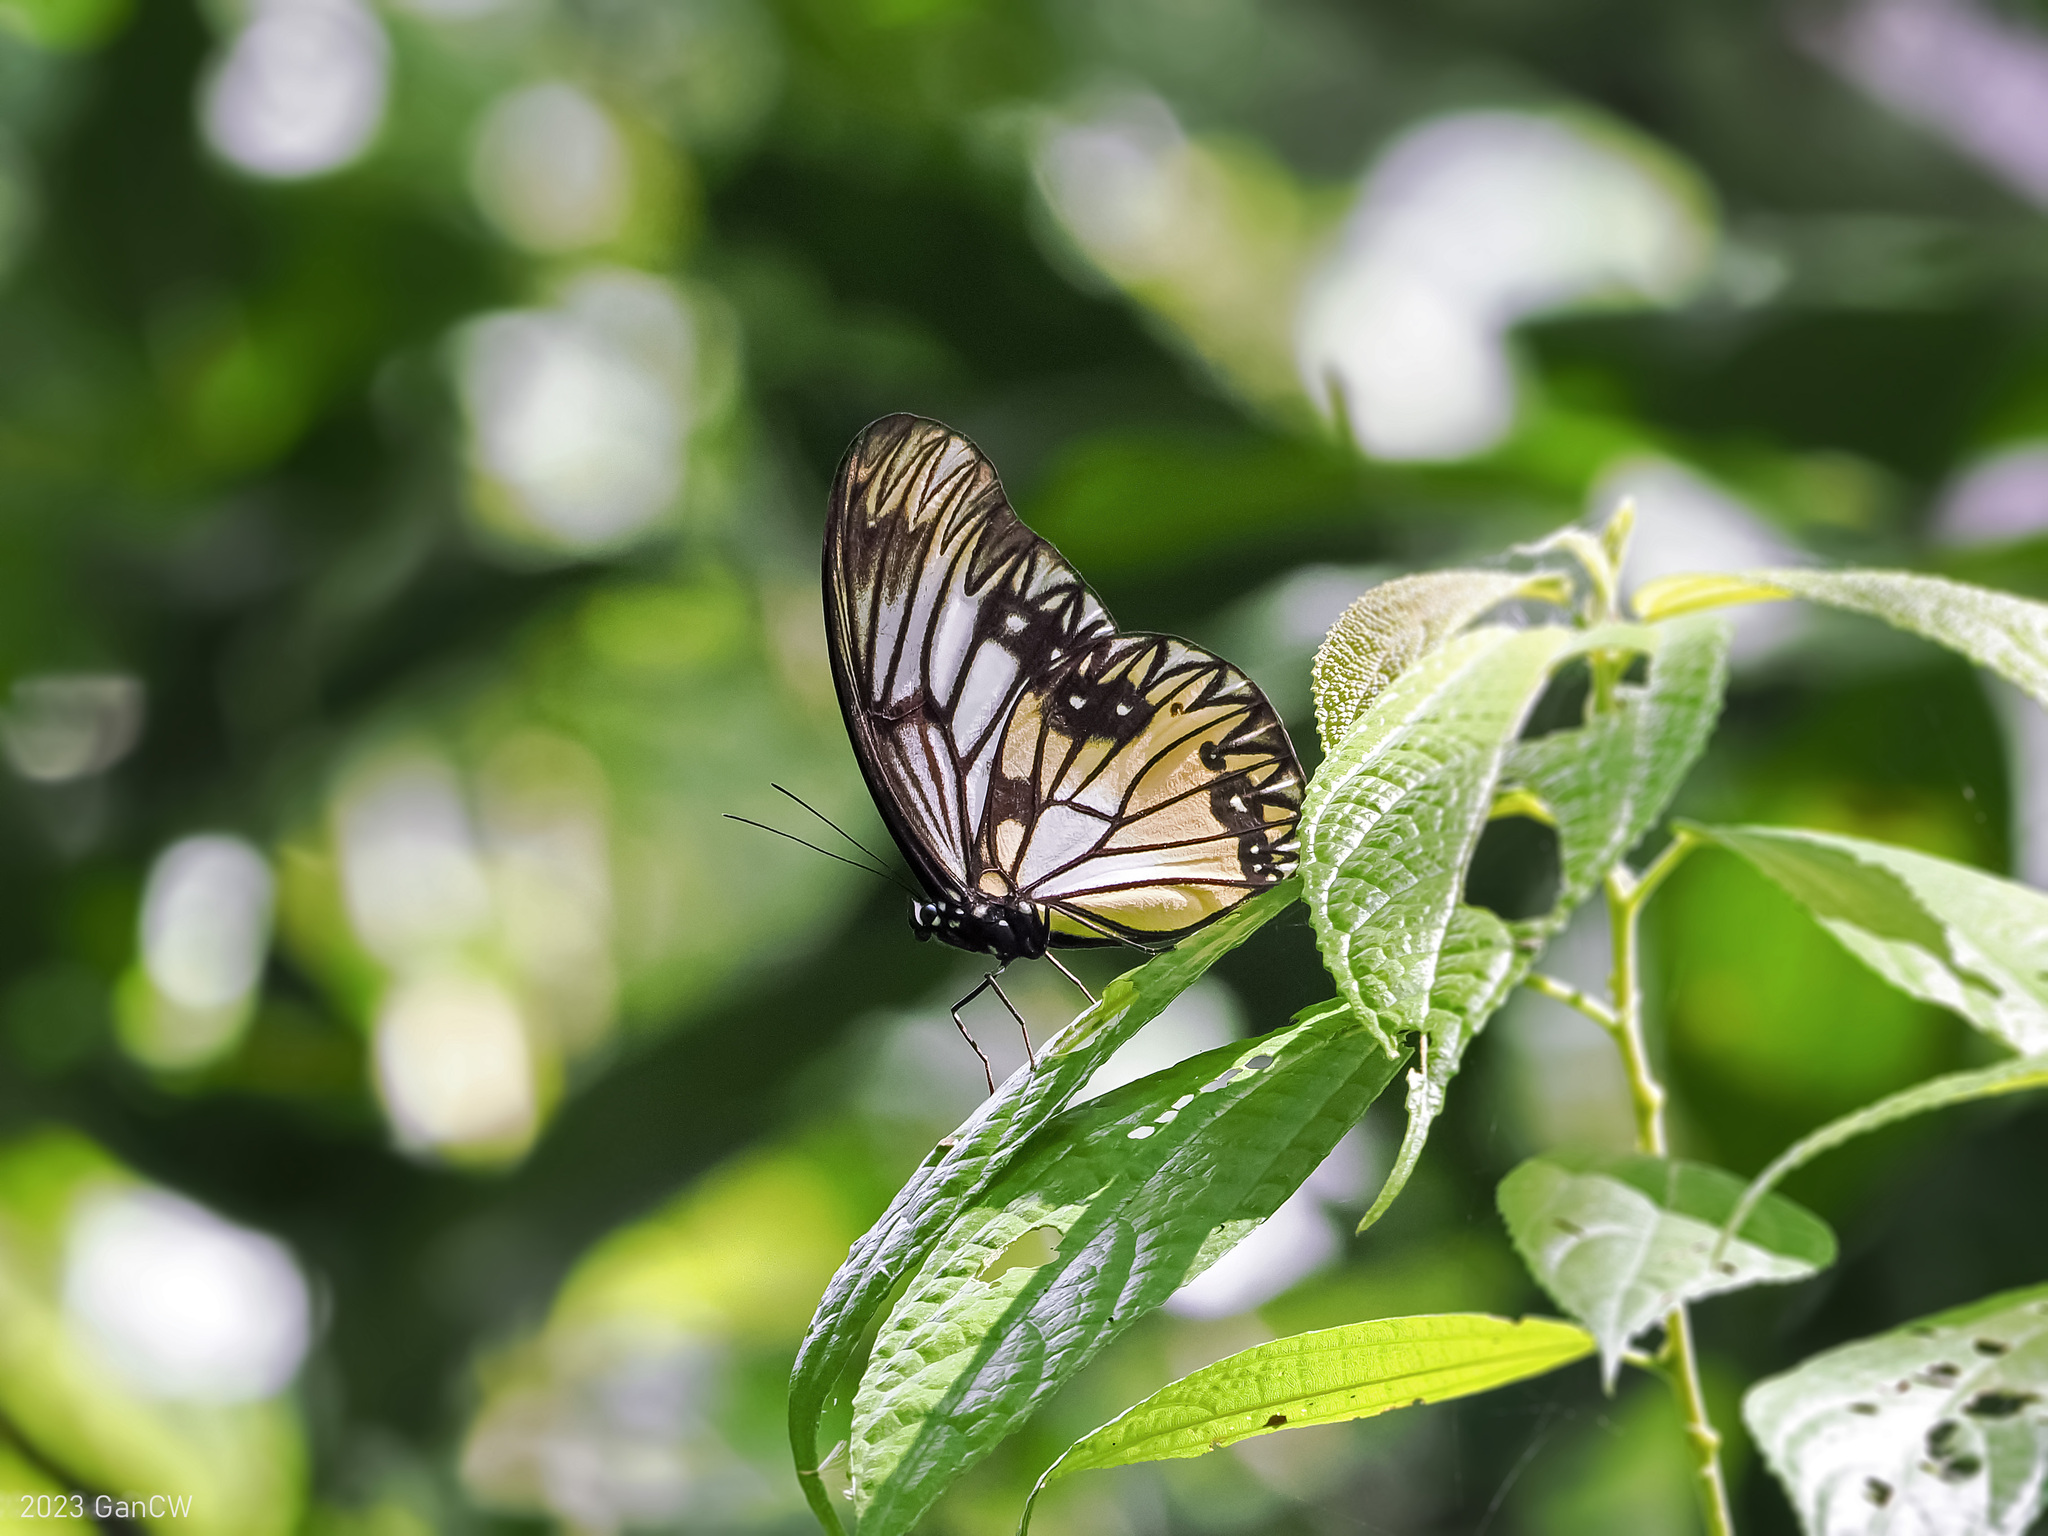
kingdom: Animalia
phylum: Arthropoda
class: Insecta
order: Lepidoptera
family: Nymphalidae
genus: Zethera
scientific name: Zethera incerta
